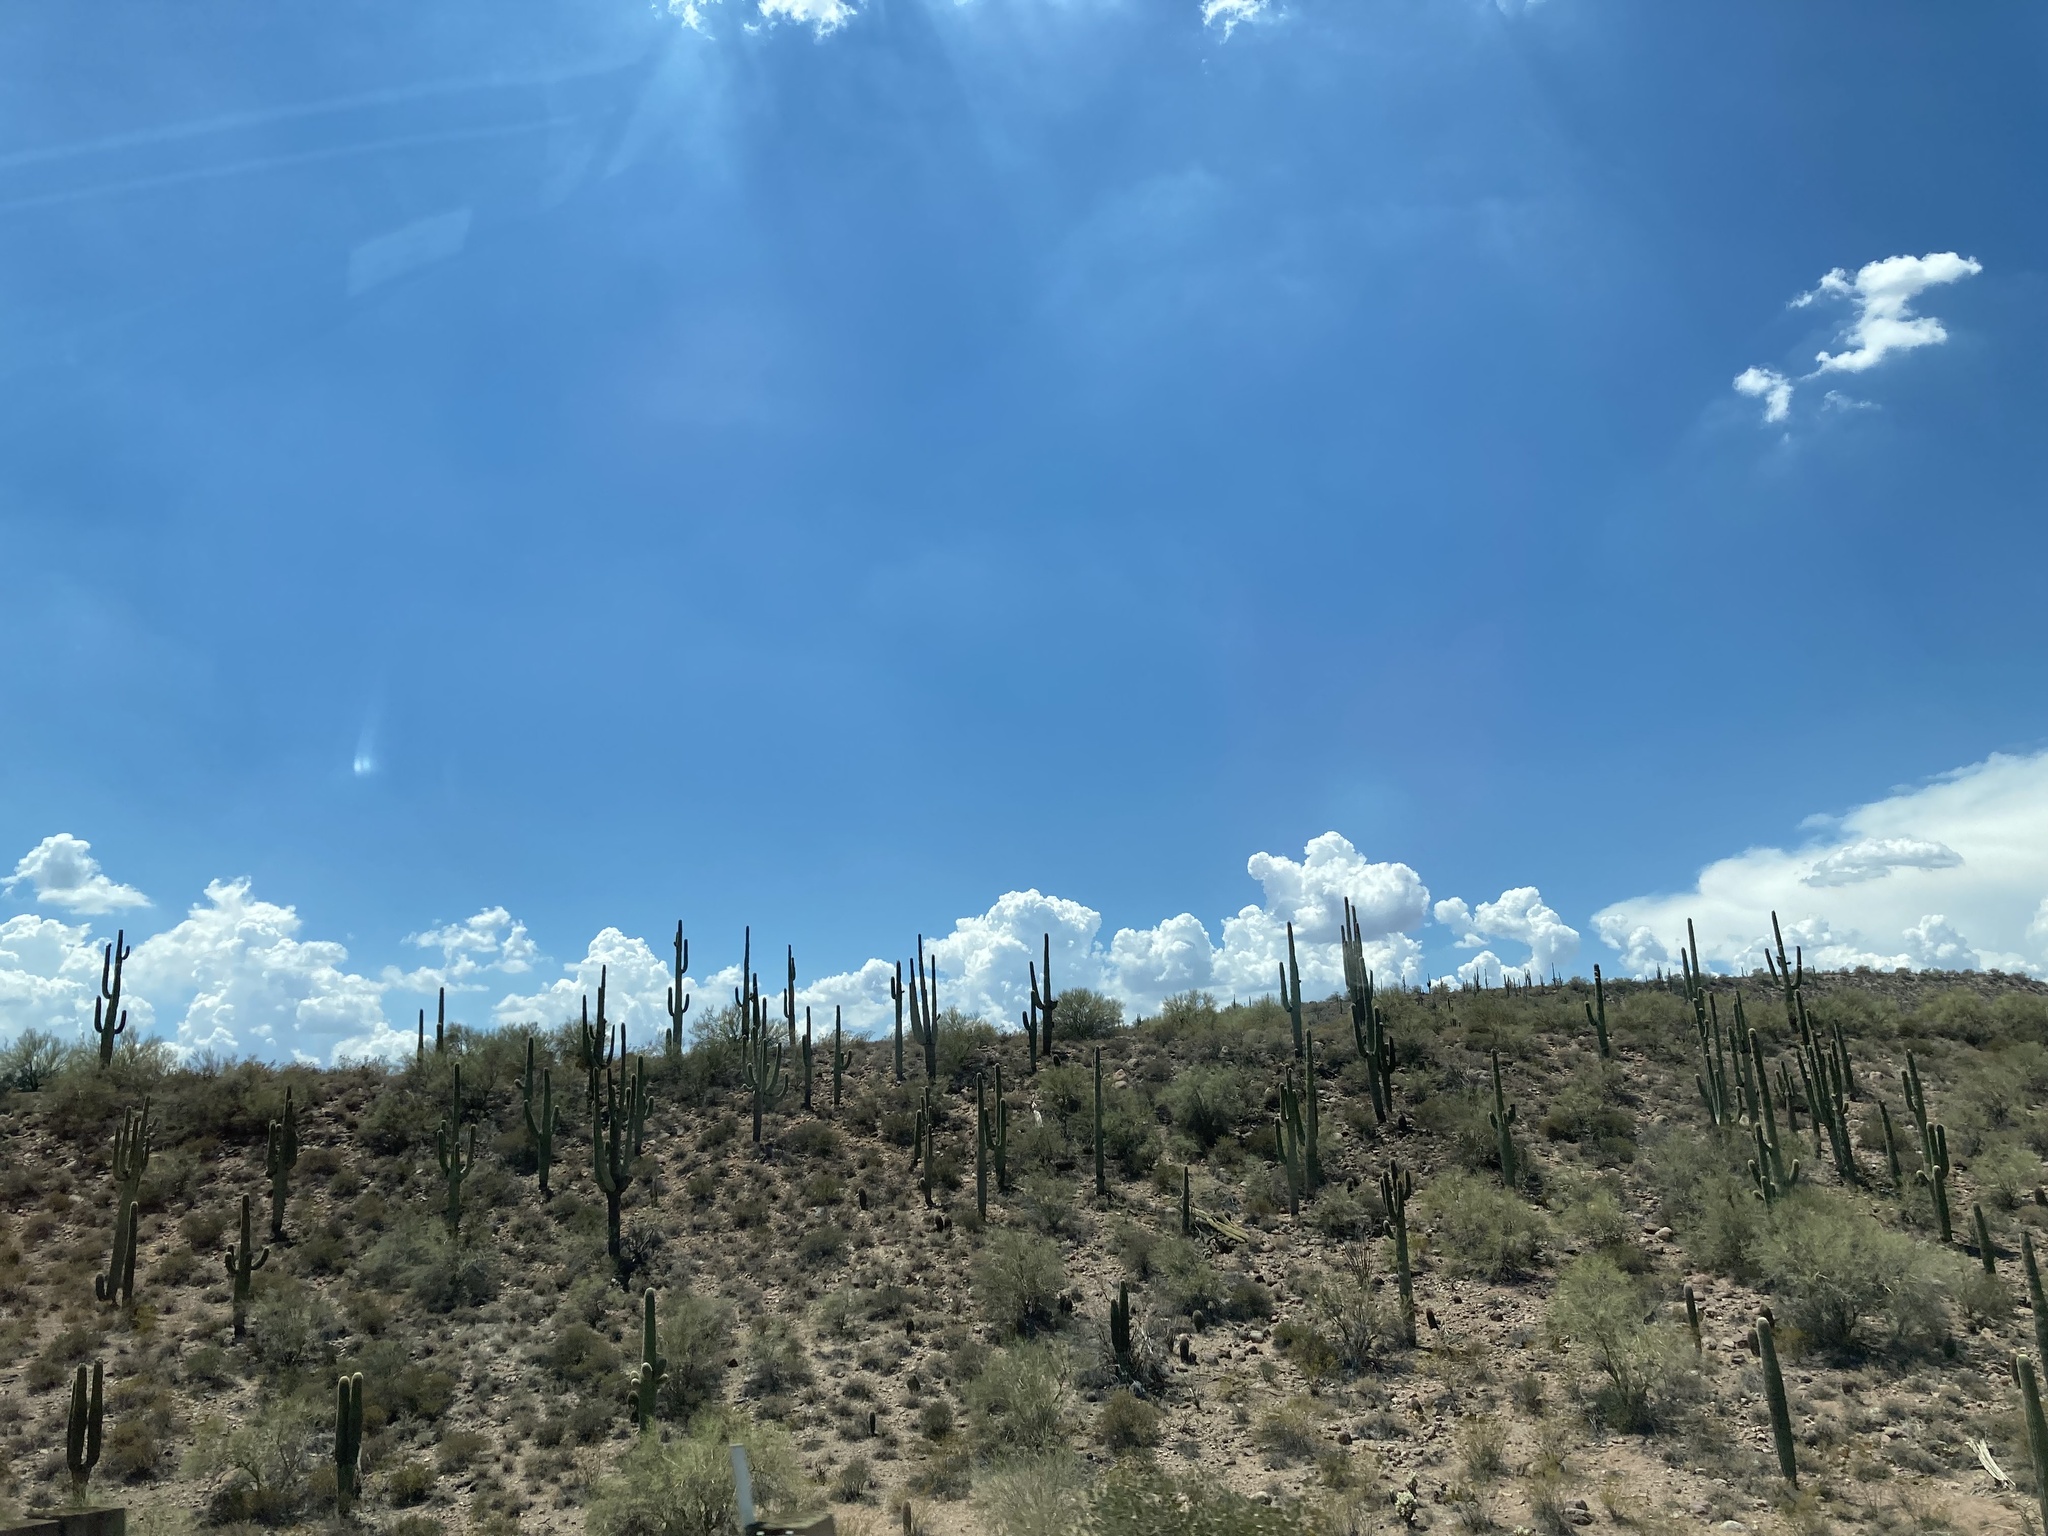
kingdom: Plantae
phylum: Tracheophyta
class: Magnoliopsida
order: Caryophyllales
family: Cactaceae
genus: Carnegiea
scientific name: Carnegiea gigantea
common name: Saguaro
